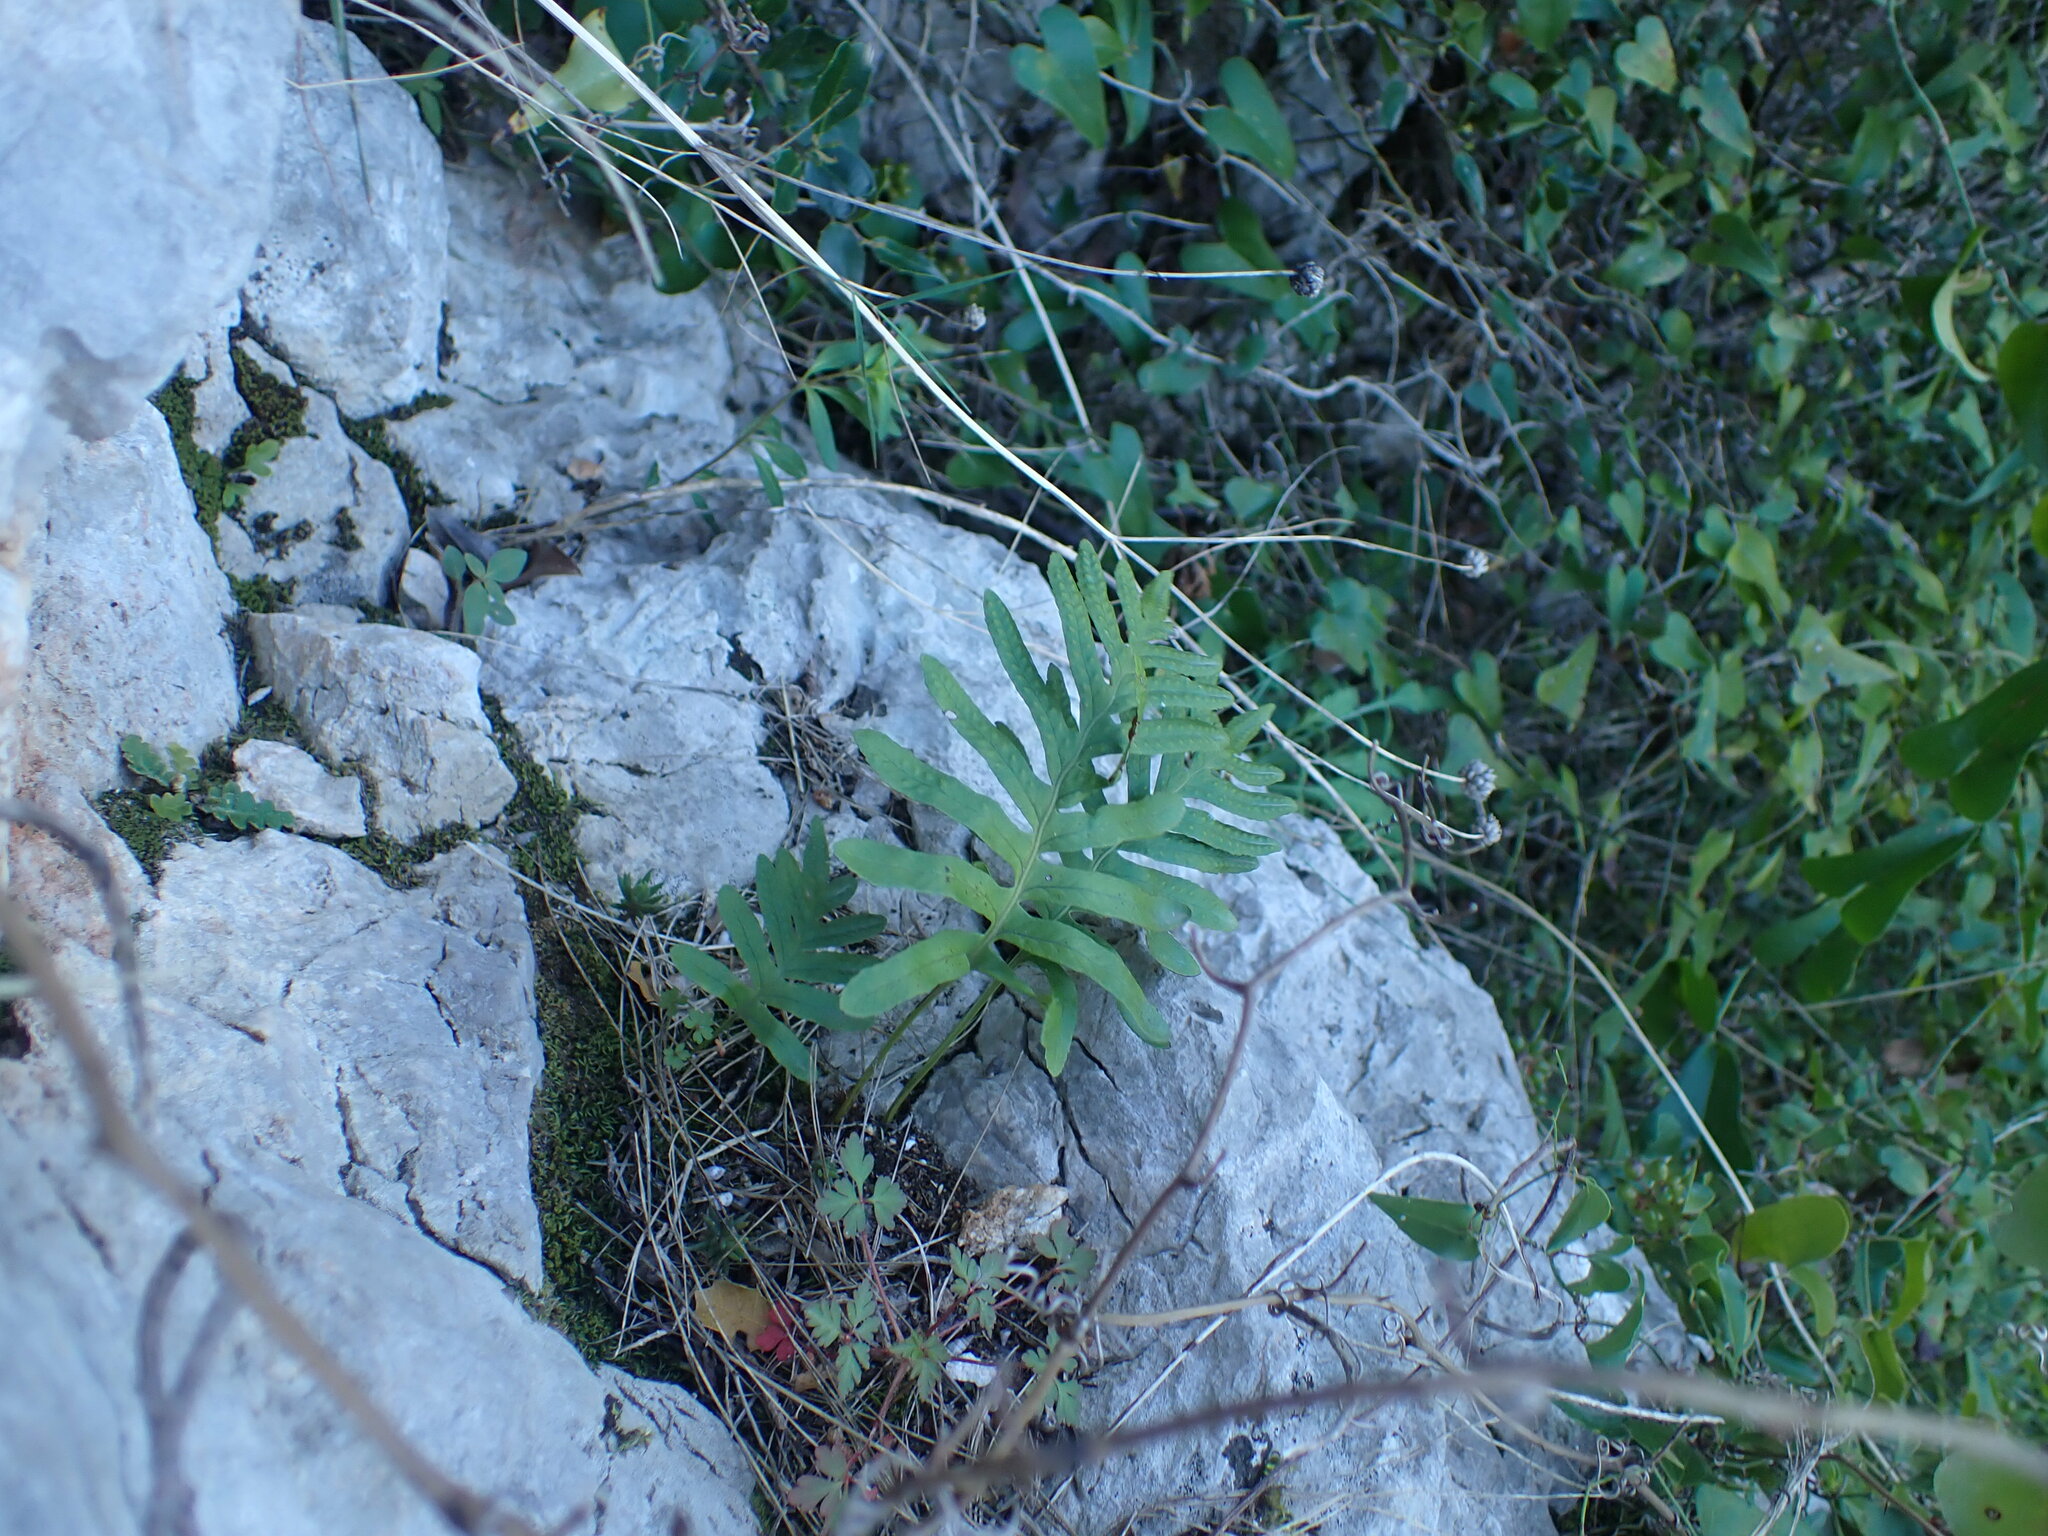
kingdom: Plantae
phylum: Tracheophyta
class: Polypodiopsida
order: Polypodiales
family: Polypodiaceae
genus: Polypodium
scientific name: Polypodium cambricum
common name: Southern polypody
